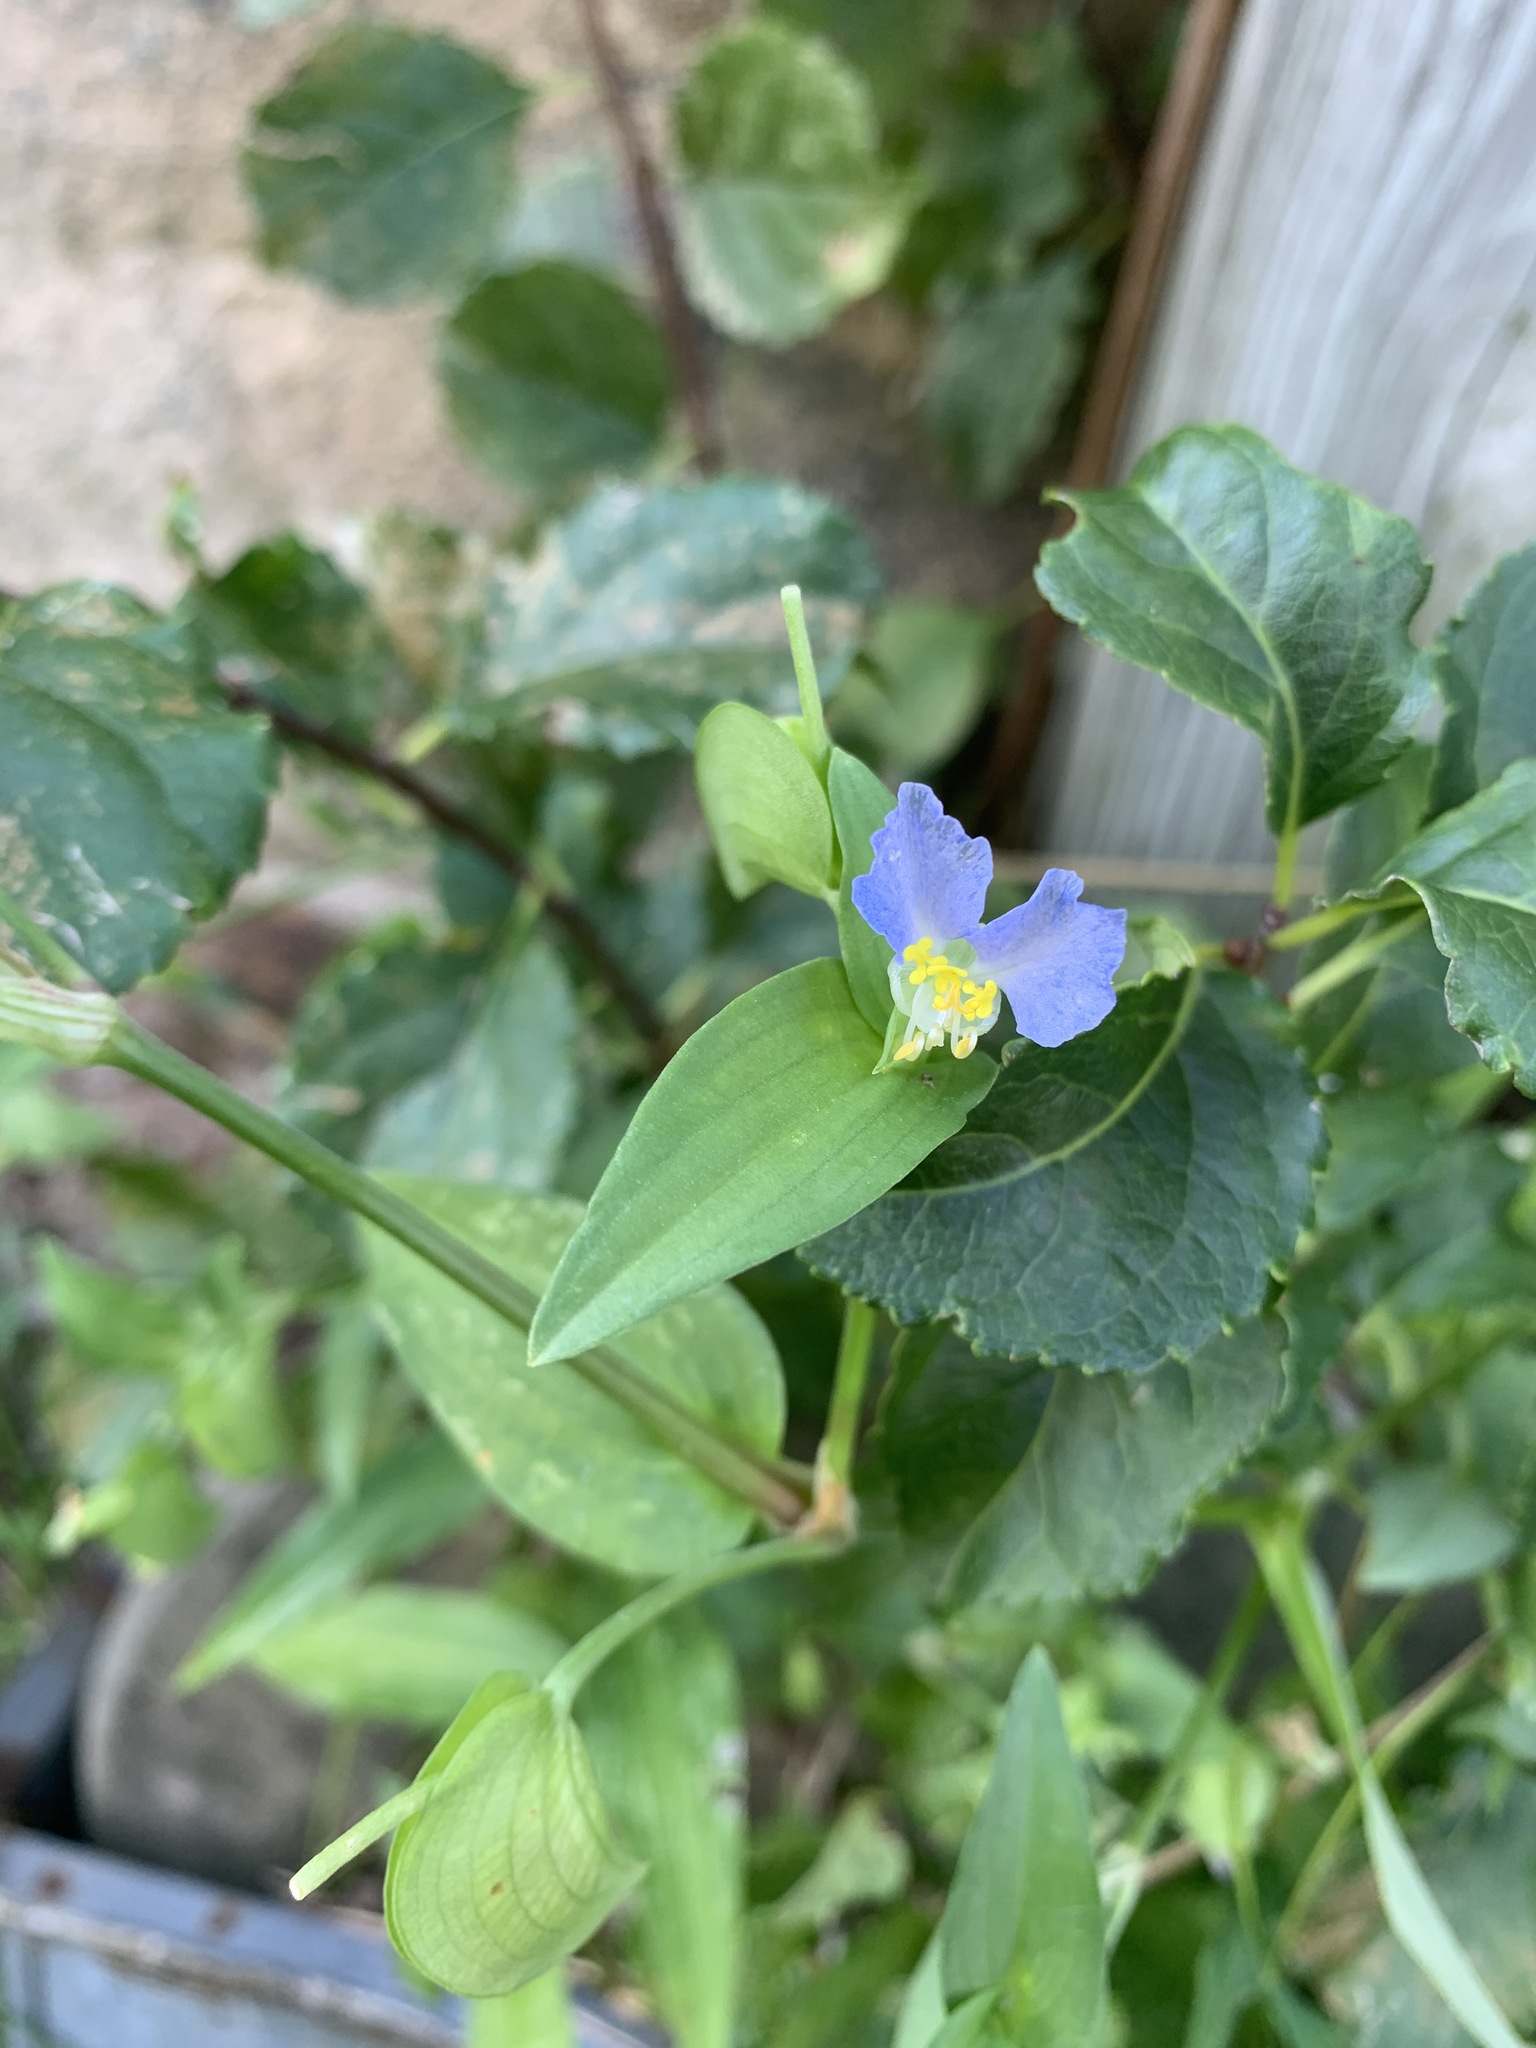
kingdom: Plantae
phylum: Tracheophyta
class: Liliopsida
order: Commelinales
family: Commelinaceae
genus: Commelina
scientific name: Commelina communis
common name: Asiatic dayflower
